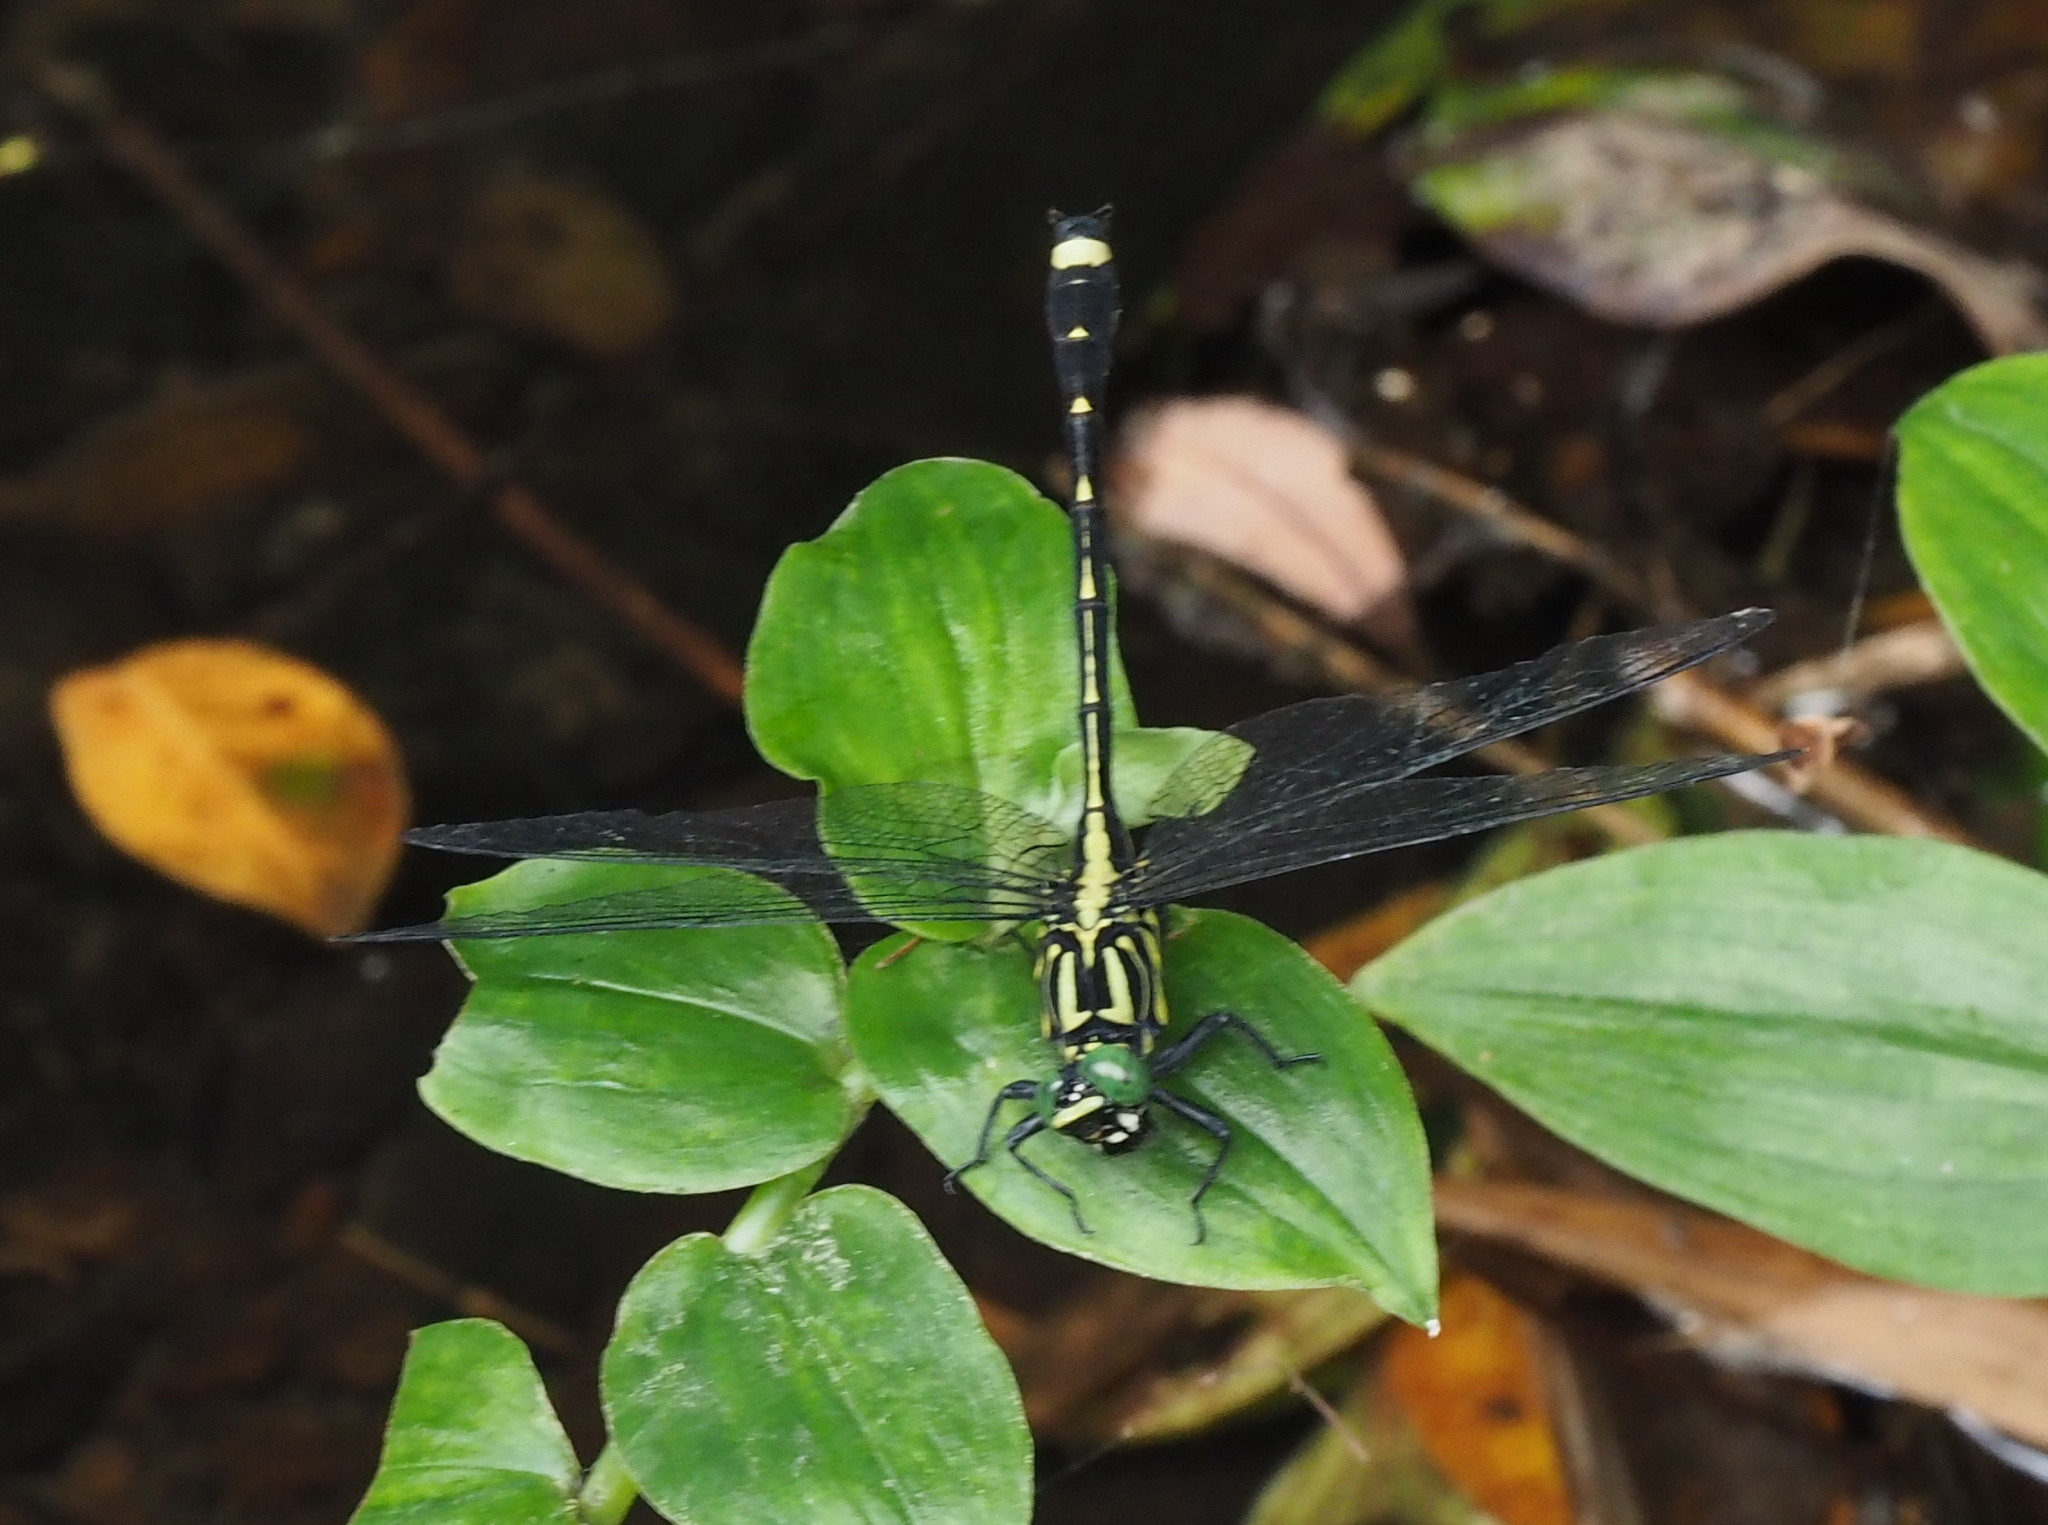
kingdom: Animalia
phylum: Arthropoda
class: Insecta
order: Odonata
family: Gomphidae
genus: Asiagomphus
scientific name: Asiagomphus septimus
